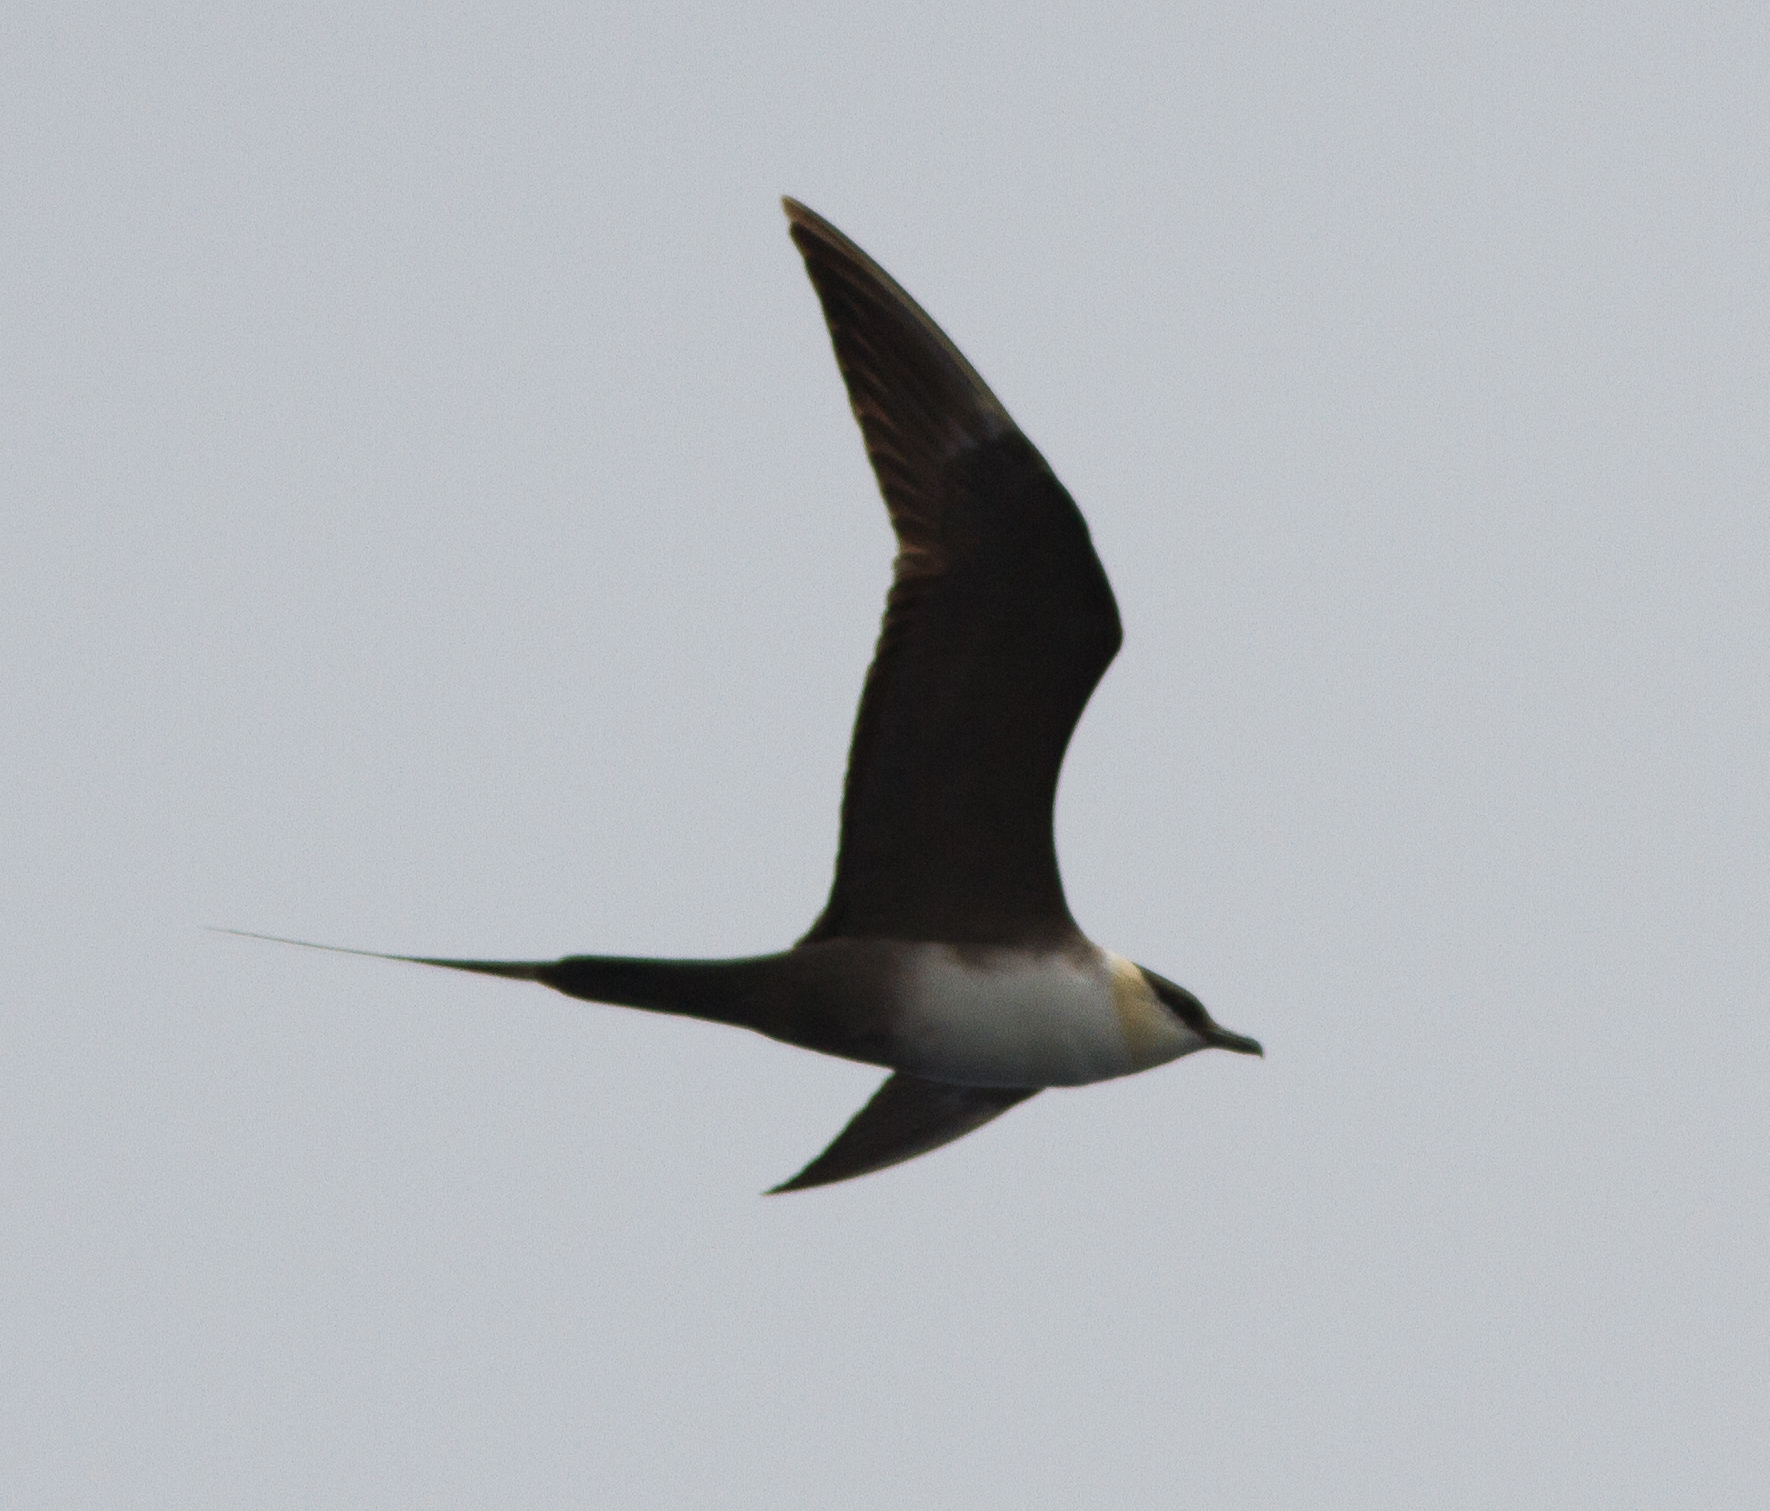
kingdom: Animalia
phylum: Chordata
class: Aves
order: Charadriiformes
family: Stercorariidae
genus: Stercorarius
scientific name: Stercorarius longicaudus
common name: Long-tailed jaeger
